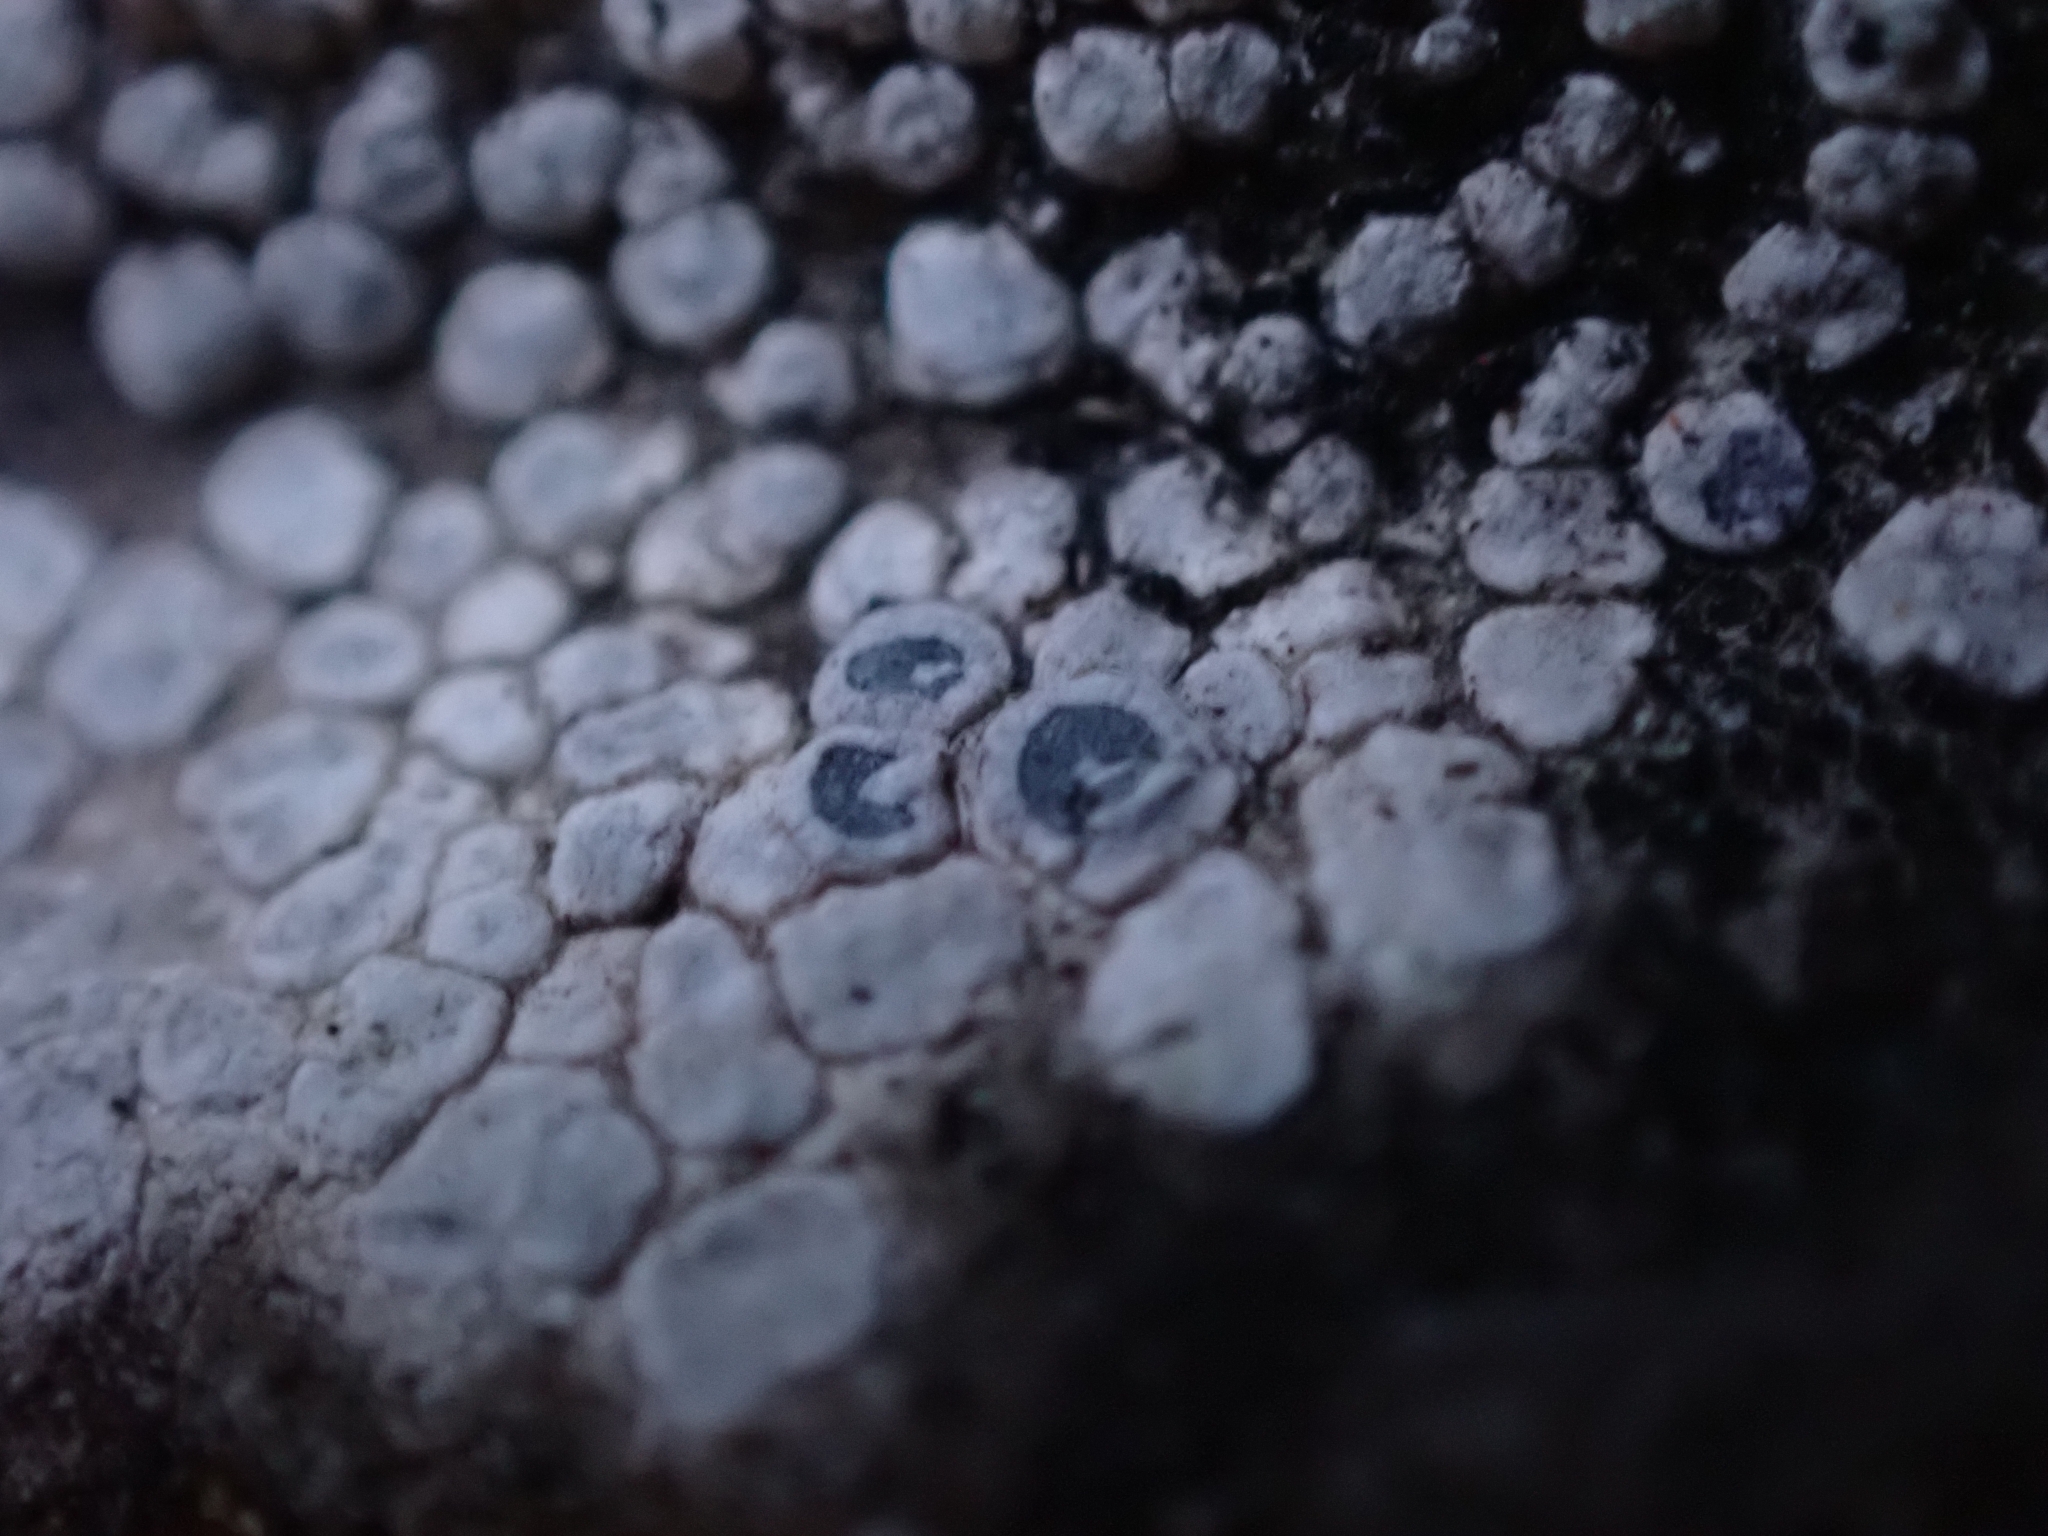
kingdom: Fungi
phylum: Ascomycota
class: Lecanoromycetes
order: Pertusariales
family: Megasporaceae
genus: Circinaria
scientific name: Circinaria contorta
